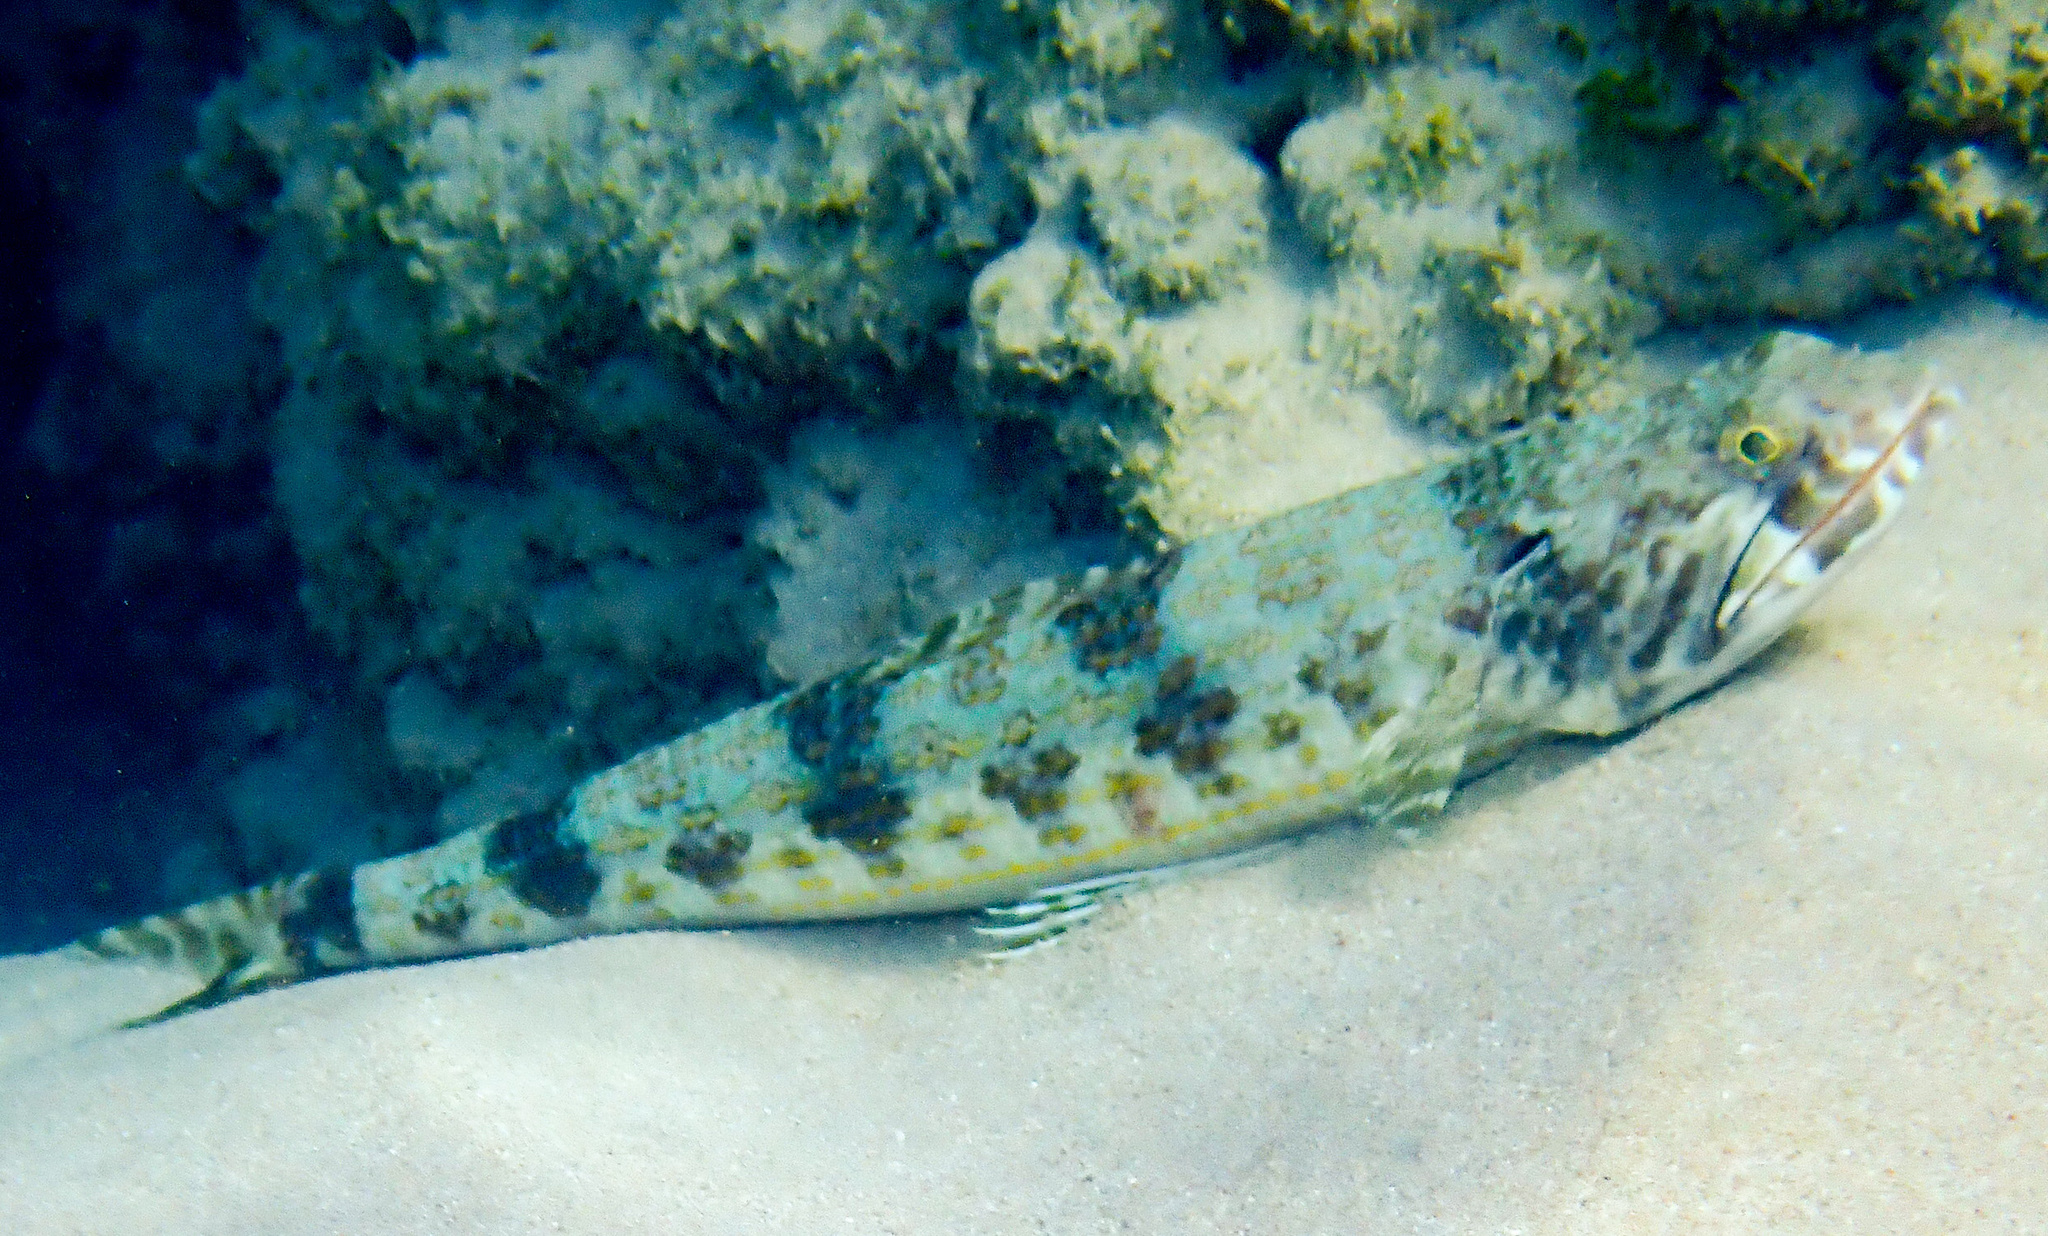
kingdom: Animalia
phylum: Chordata
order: Aulopiformes
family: Synodontidae
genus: Synodus
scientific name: Synodus intermedius
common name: Sand diver
